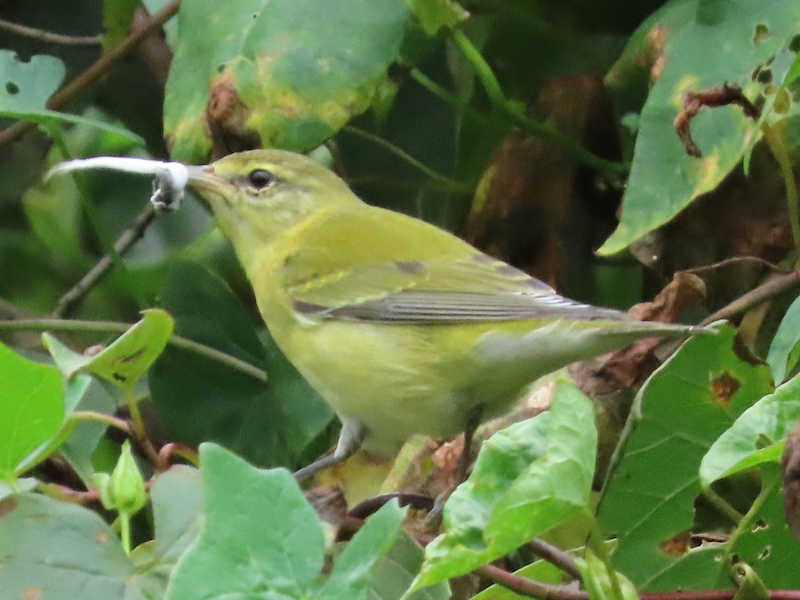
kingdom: Animalia
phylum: Chordata
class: Aves
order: Passeriformes
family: Parulidae
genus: Leiothlypis
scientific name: Leiothlypis peregrina
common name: Tennessee warbler
